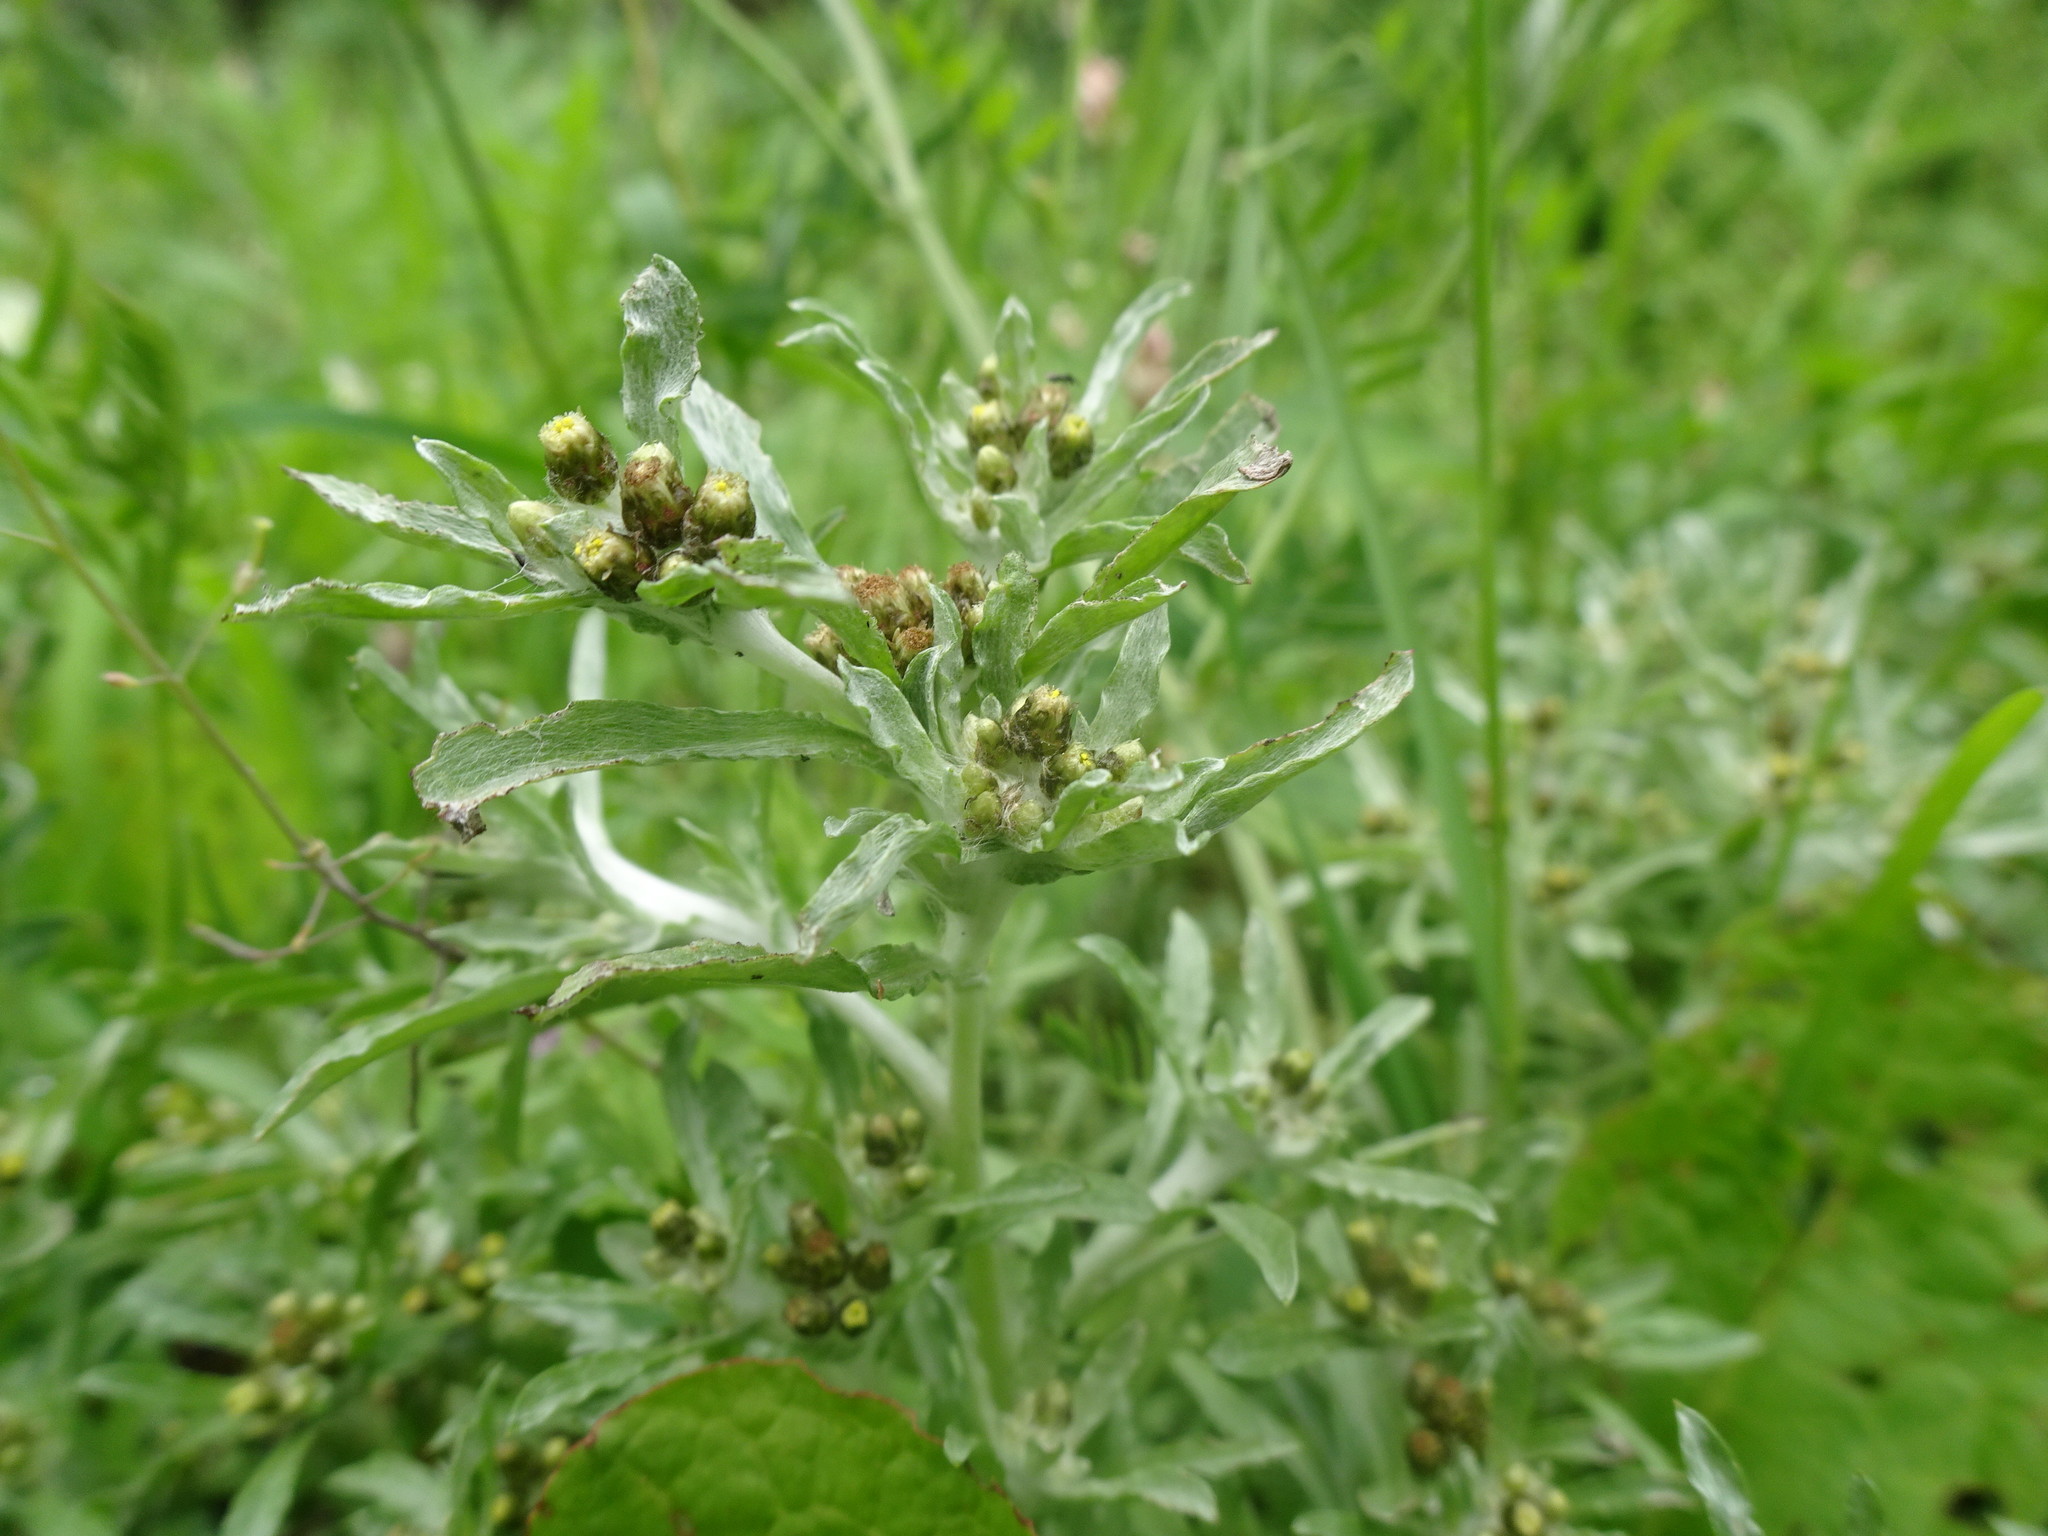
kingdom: Plantae
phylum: Tracheophyta
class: Magnoliopsida
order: Asterales
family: Asteraceae
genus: Gnaphalium
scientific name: Gnaphalium uliginosum
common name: Marsh cudweed
